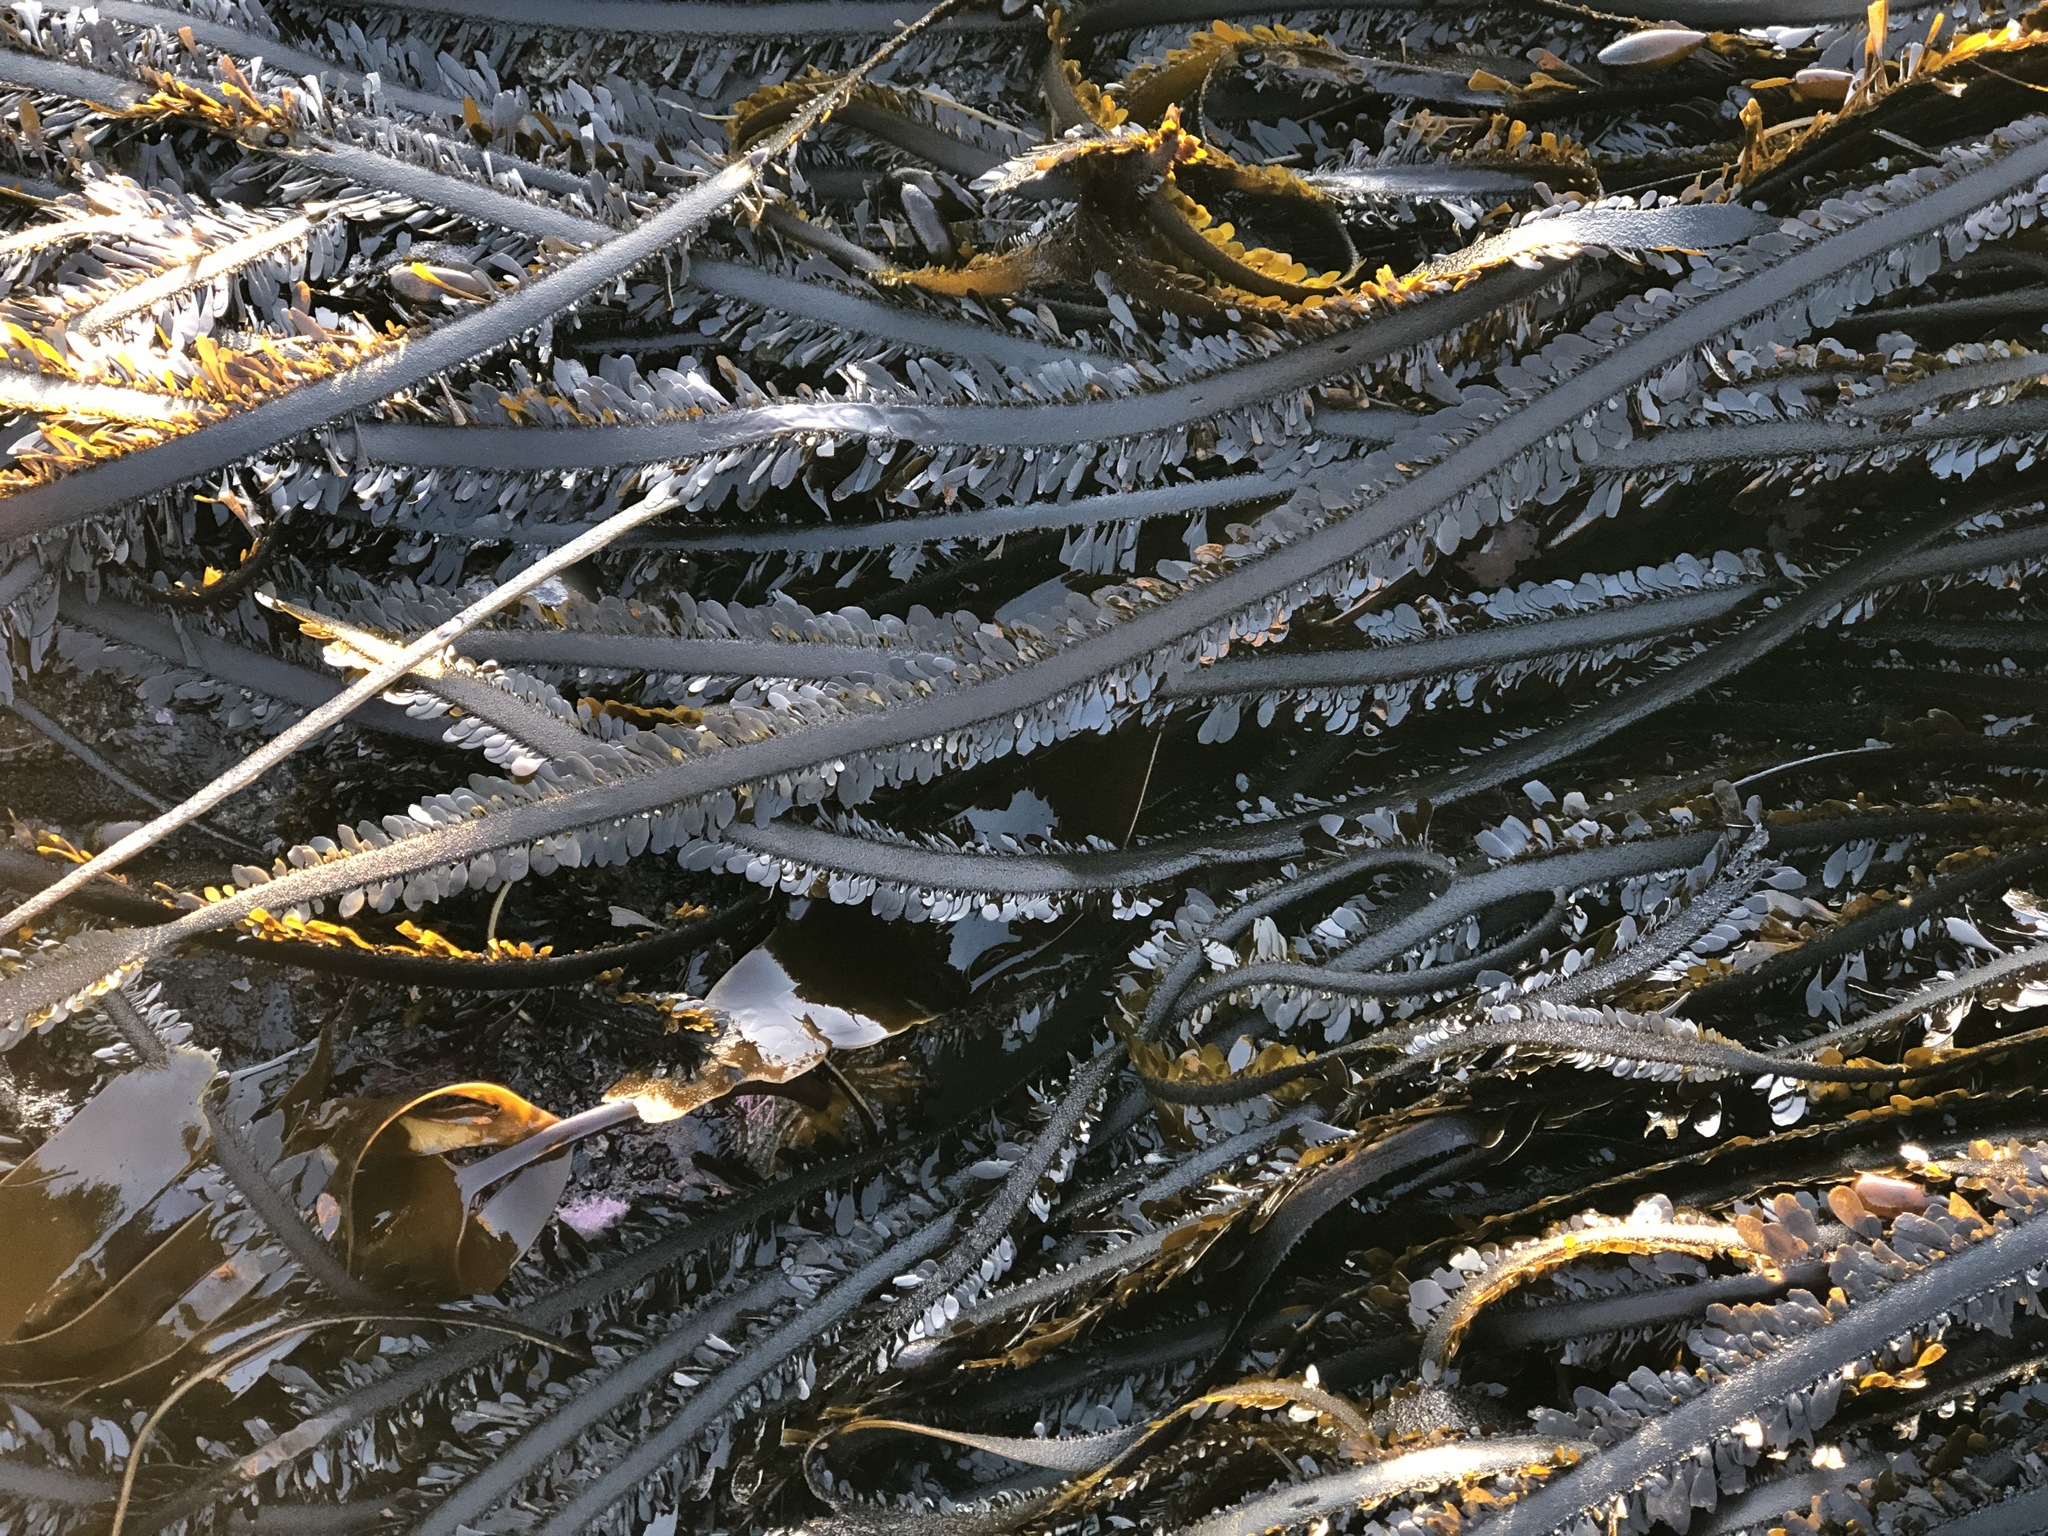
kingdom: Chromista
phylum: Ochrophyta
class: Phaeophyceae
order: Laminariales
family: Lessoniaceae
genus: Egregia
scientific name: Egregia menziesii
